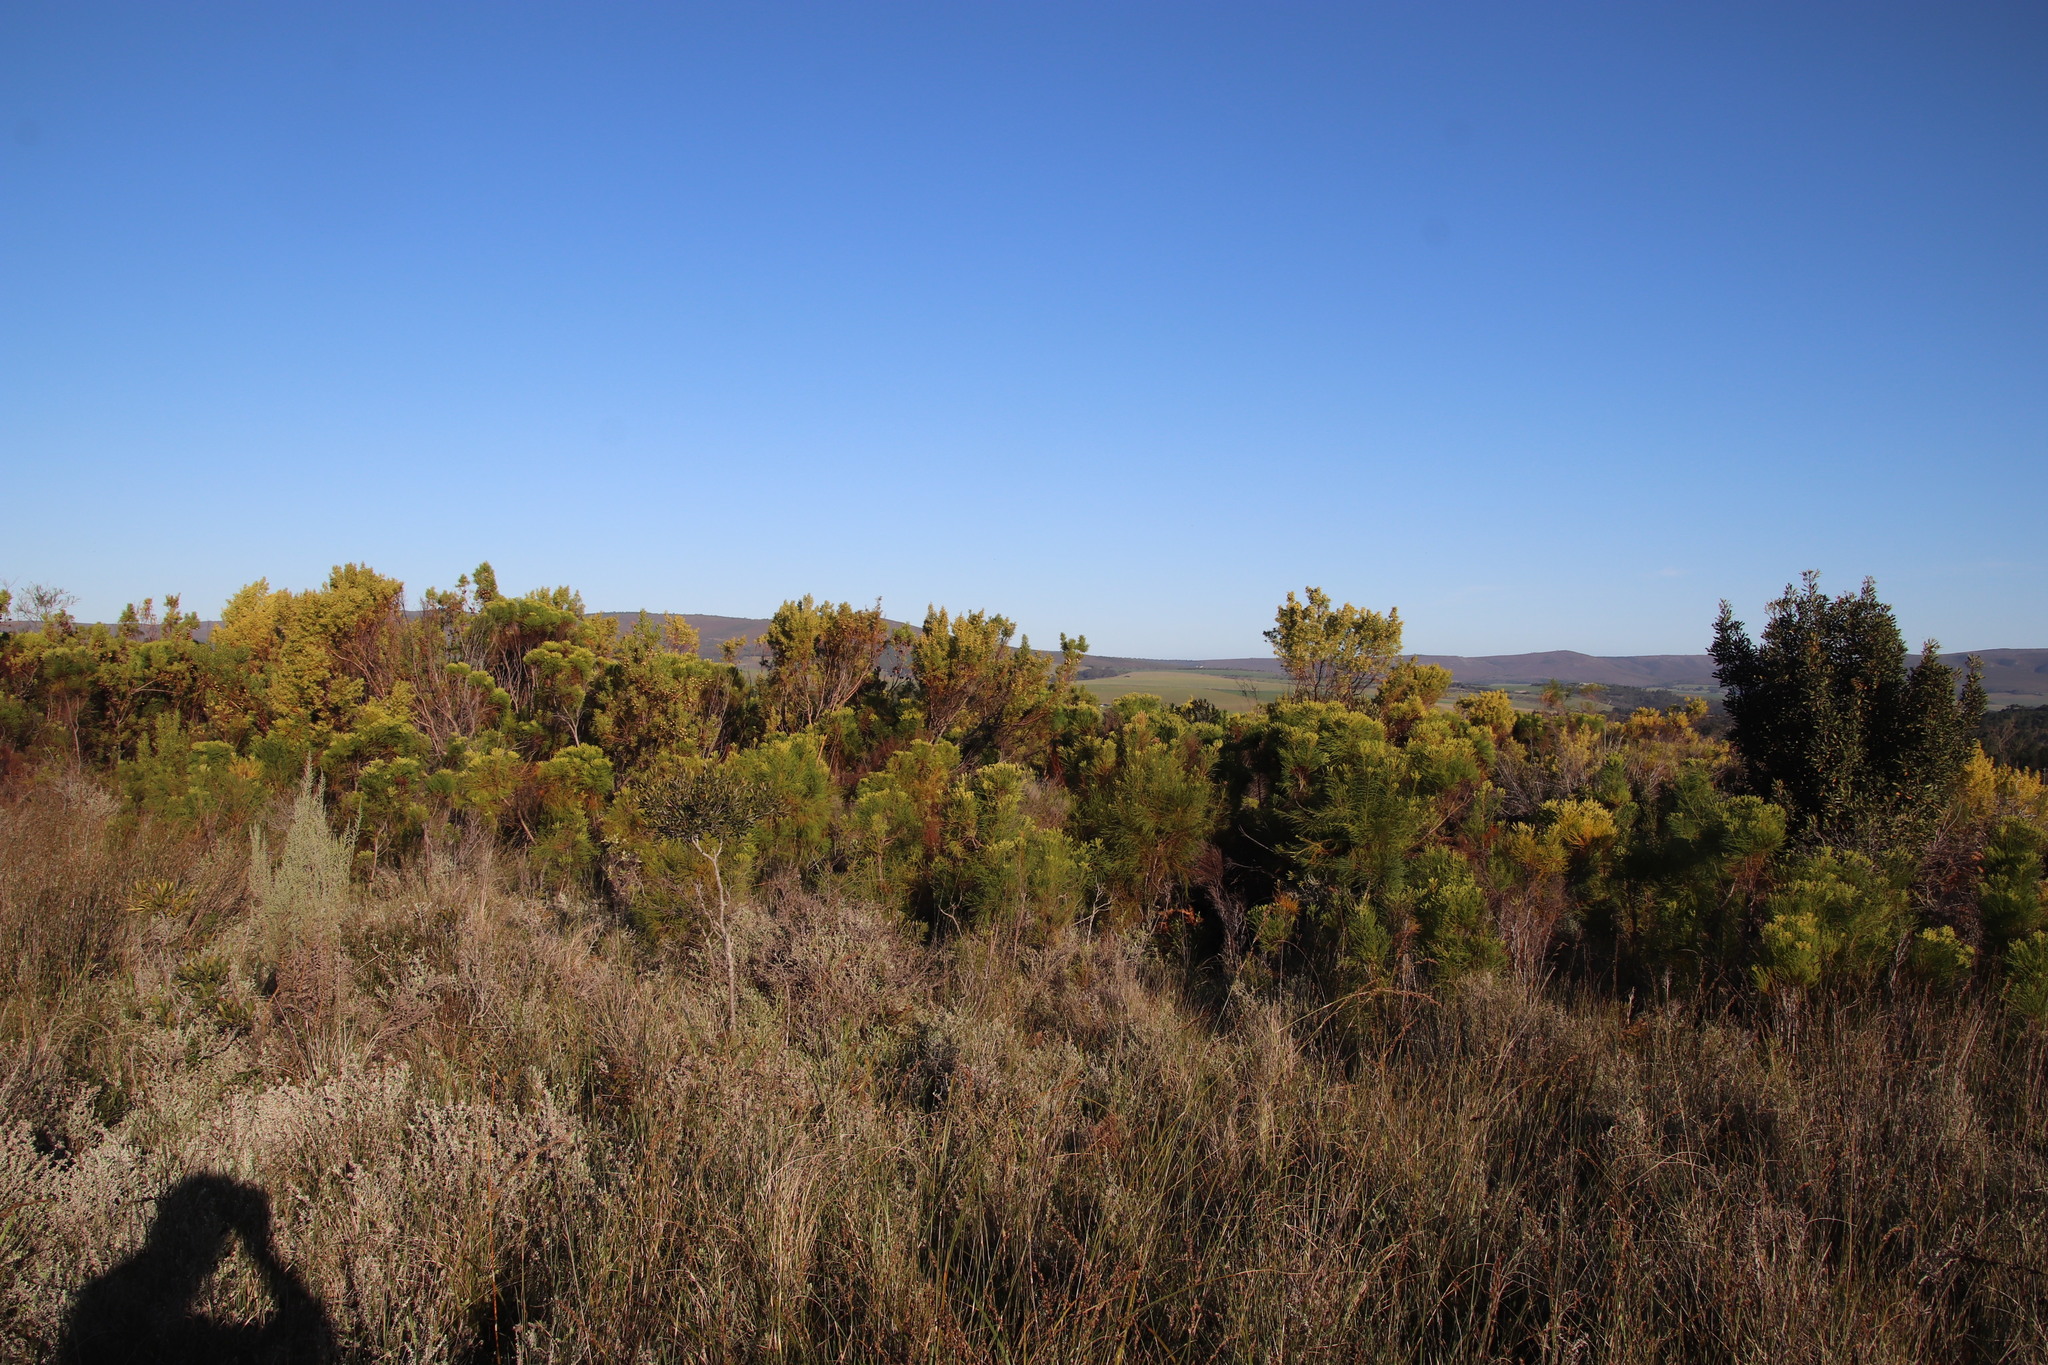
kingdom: Plantae
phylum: Tracheophyta
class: Magnoliopsida
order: Bruniales
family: Bruniaceae
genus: Berzelia
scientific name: Berzelia lanuginosa
